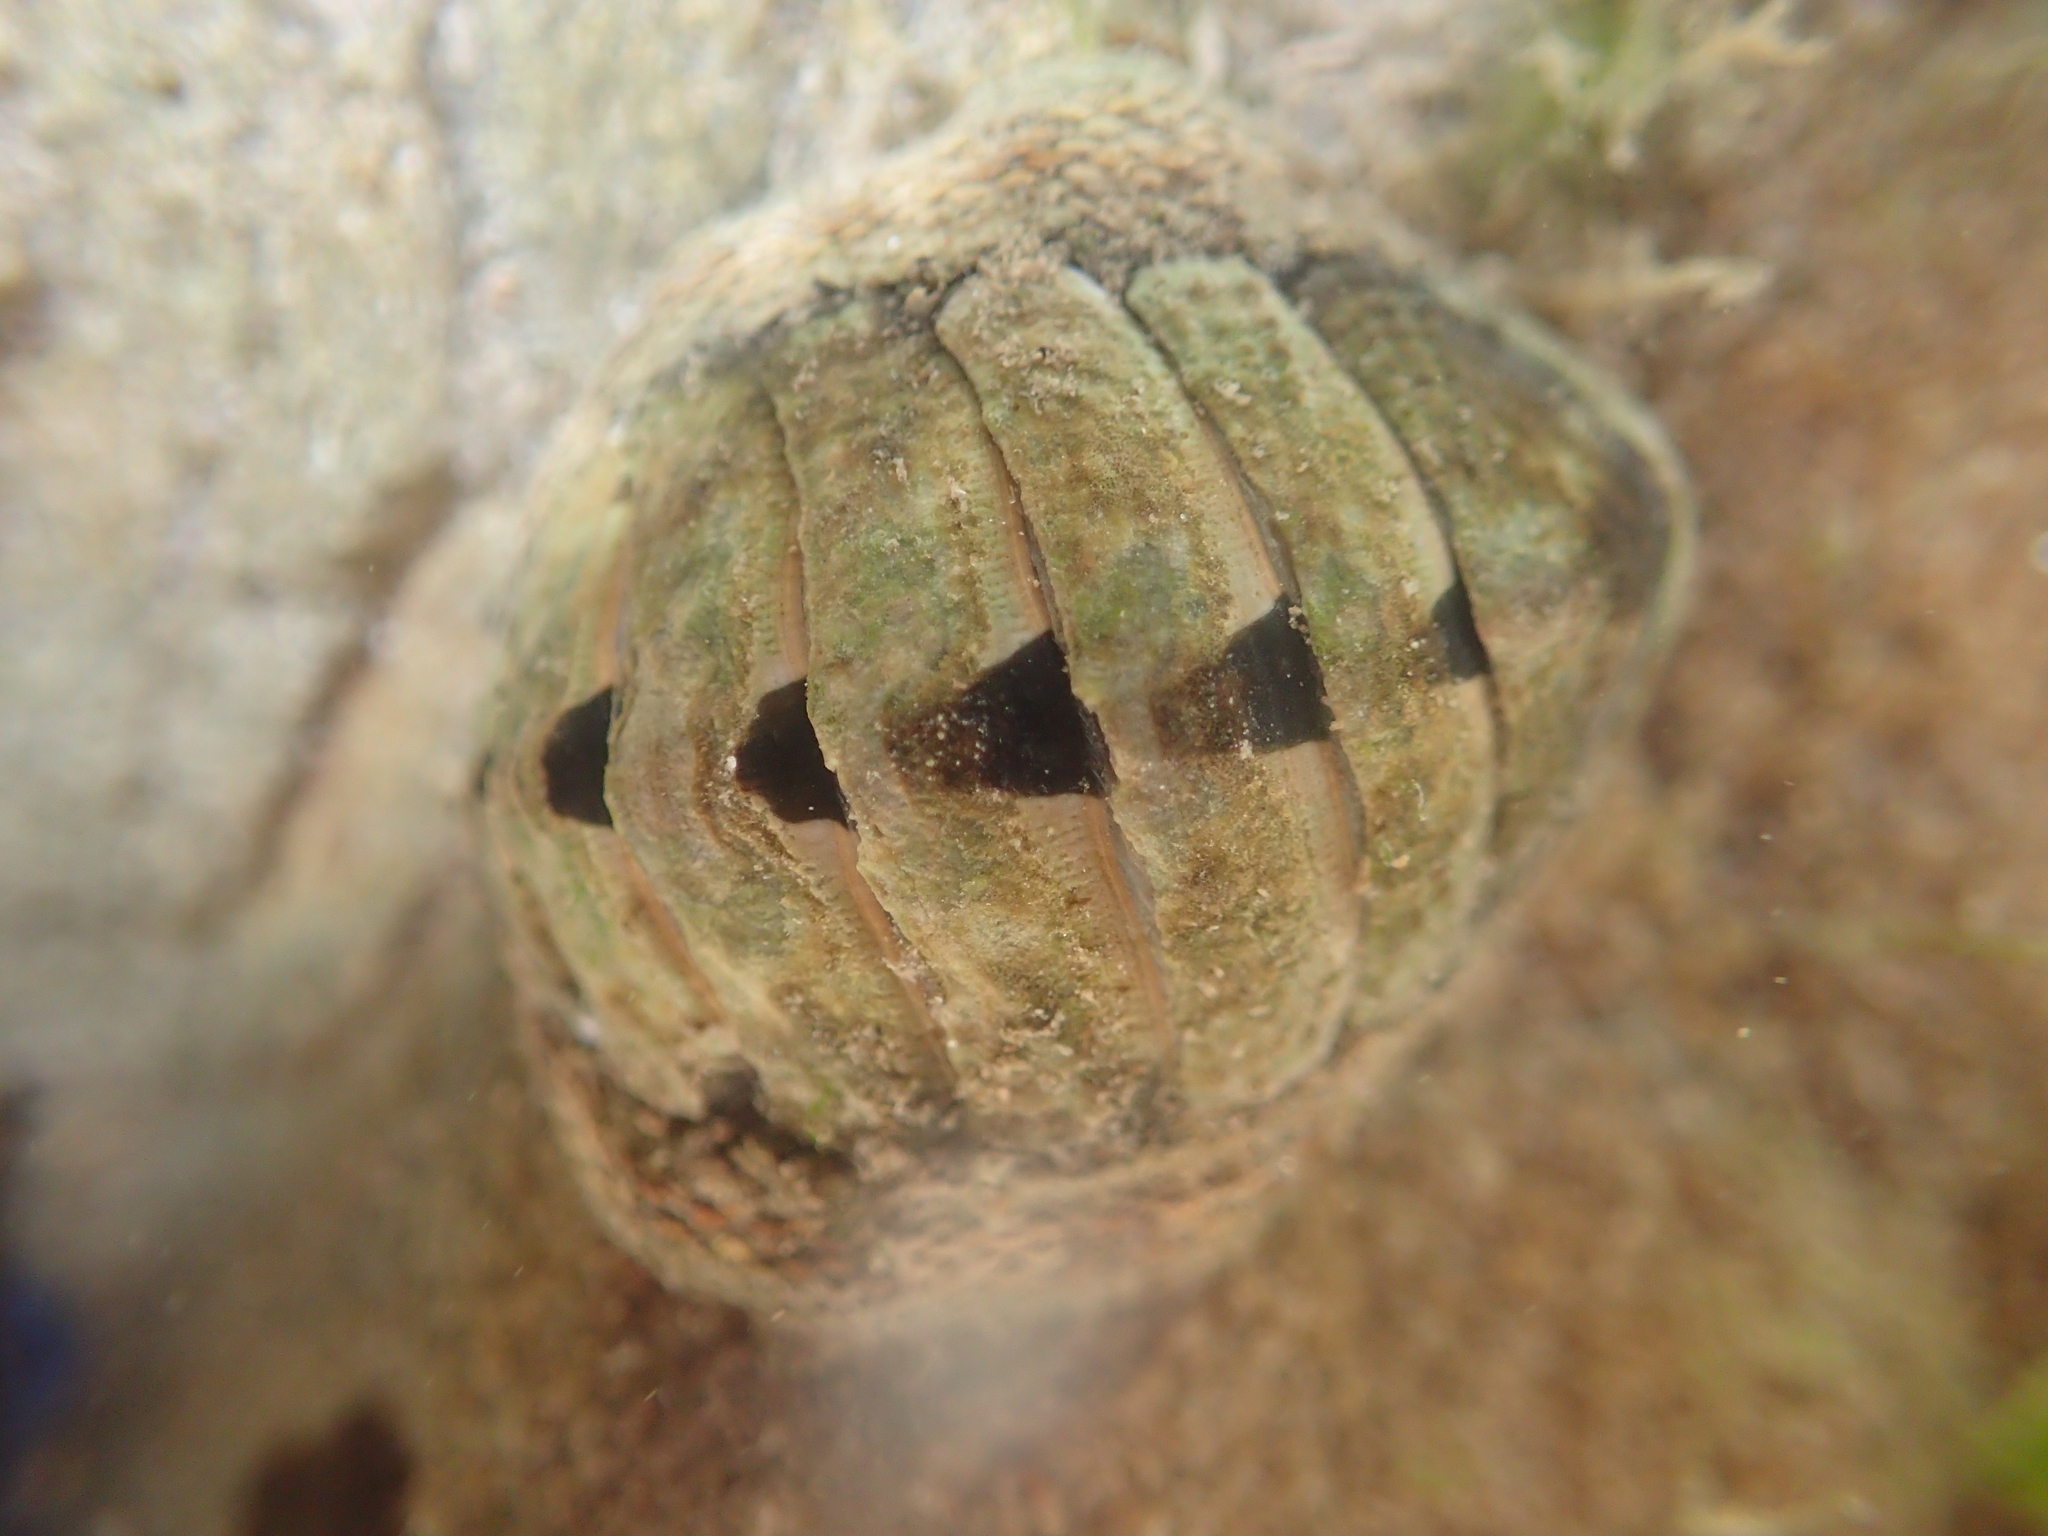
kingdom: Animalia
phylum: Mollusca
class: Polyplacophora
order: Chitonida
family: Chitonidae
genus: Sypharochiton
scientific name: Sypharochiton pelliserpentis
